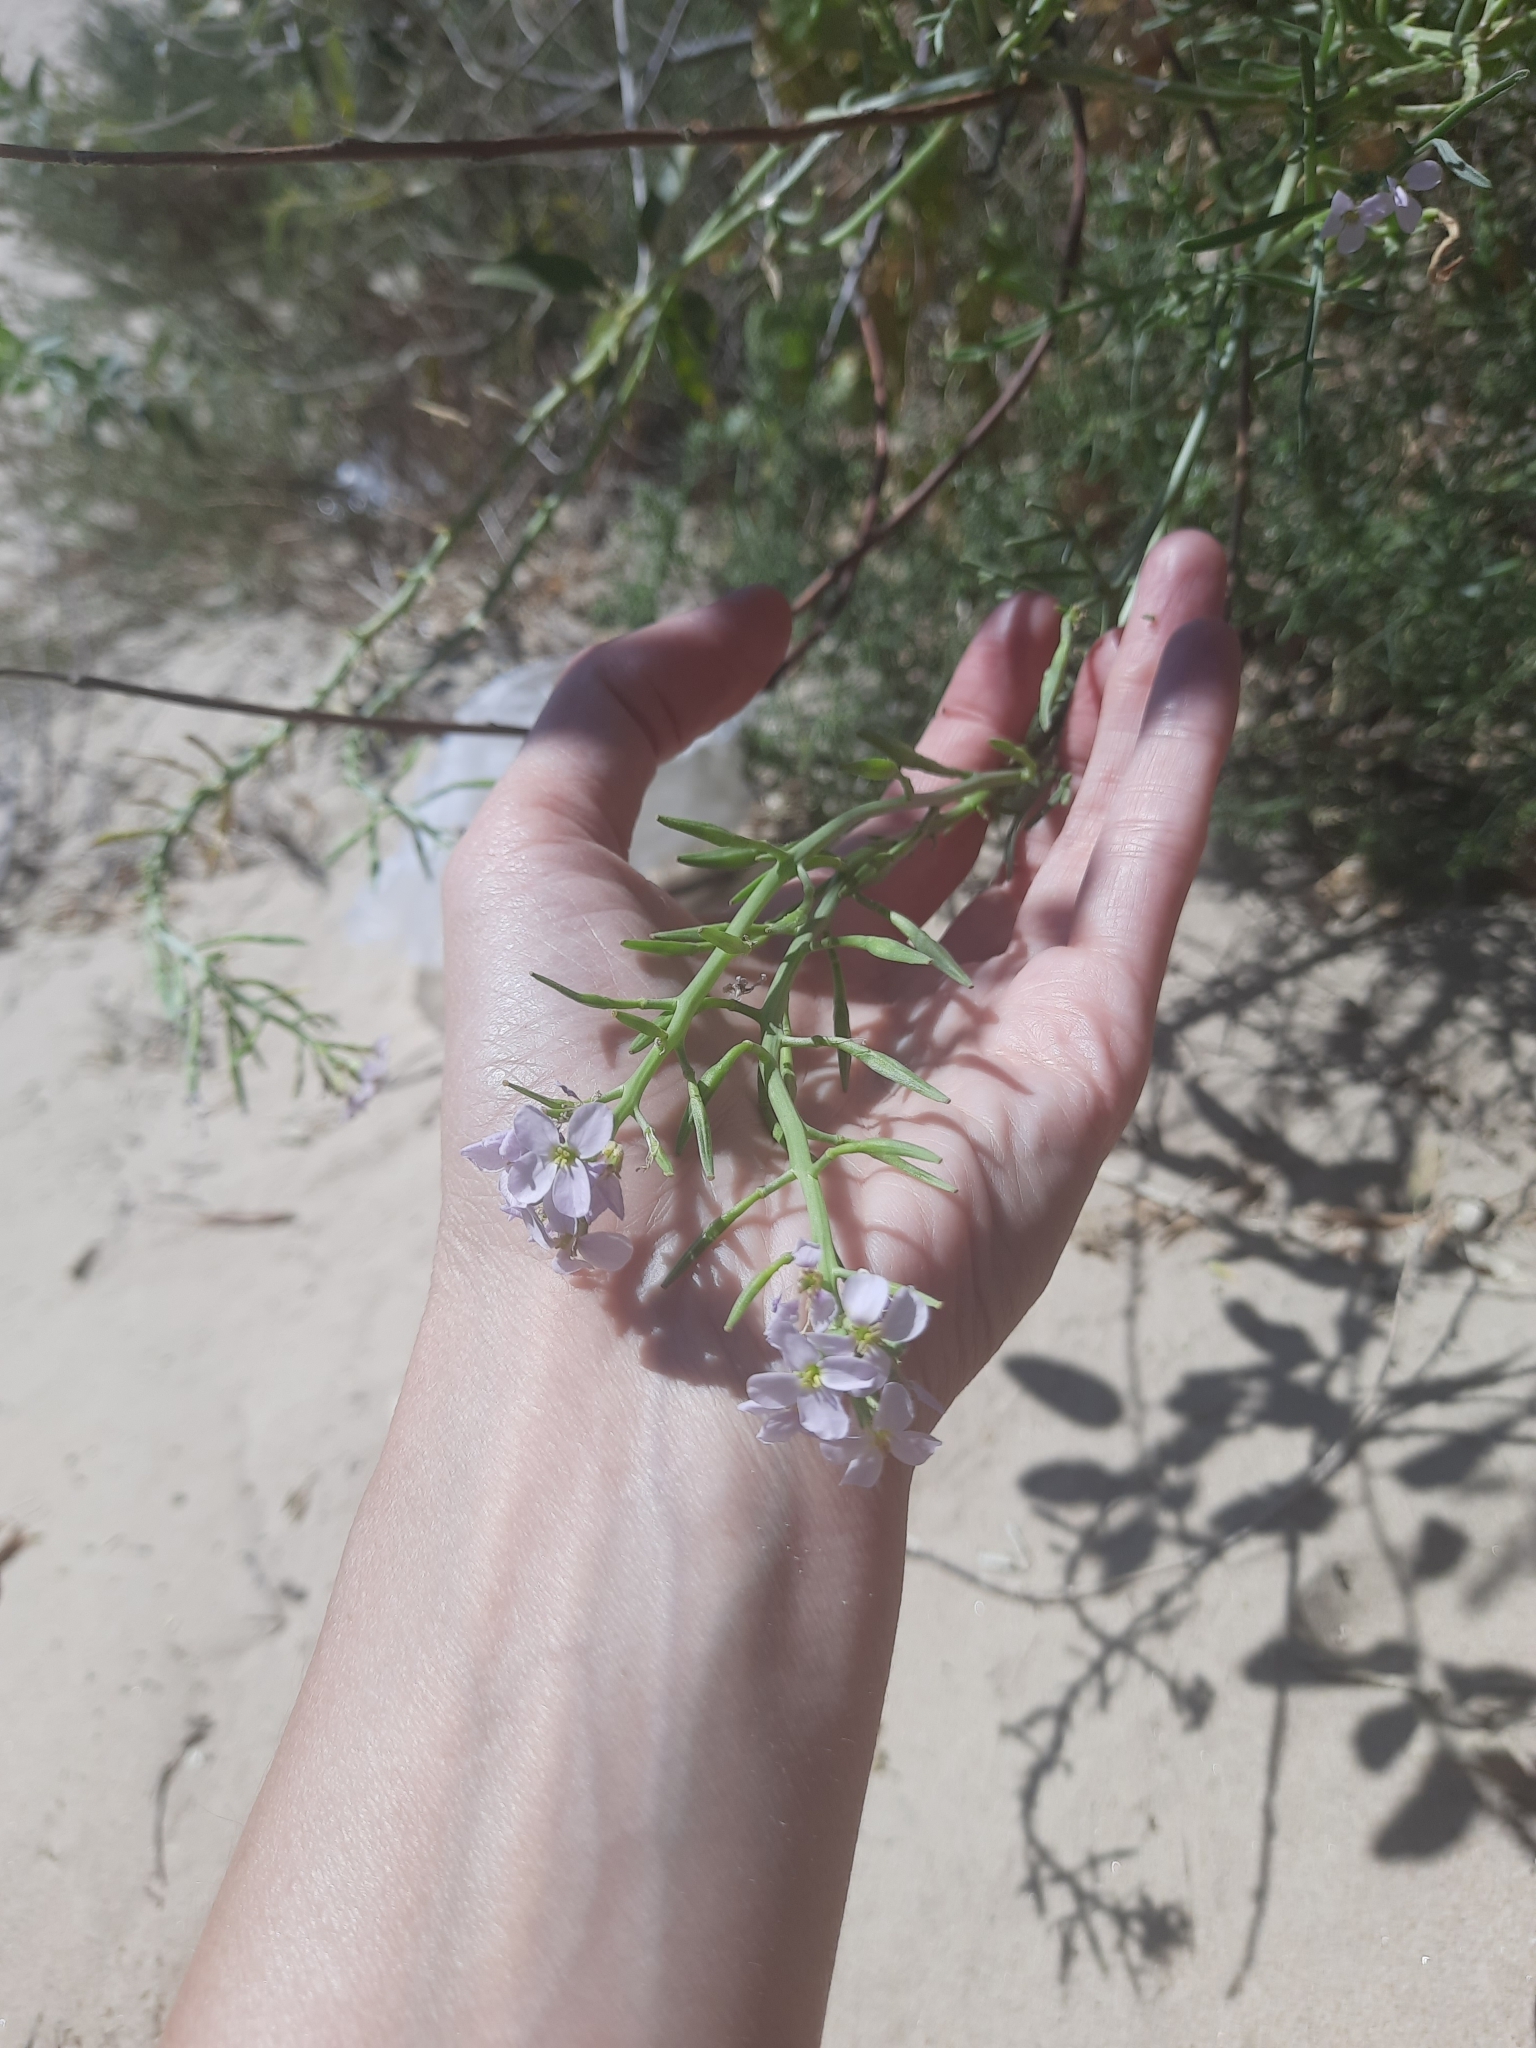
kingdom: Plantae
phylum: Tracheophyta
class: Magnoliopsida
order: Brassicales
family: Brassicaceae
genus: Cakile
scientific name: Cakile maritima
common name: Sea rocket
